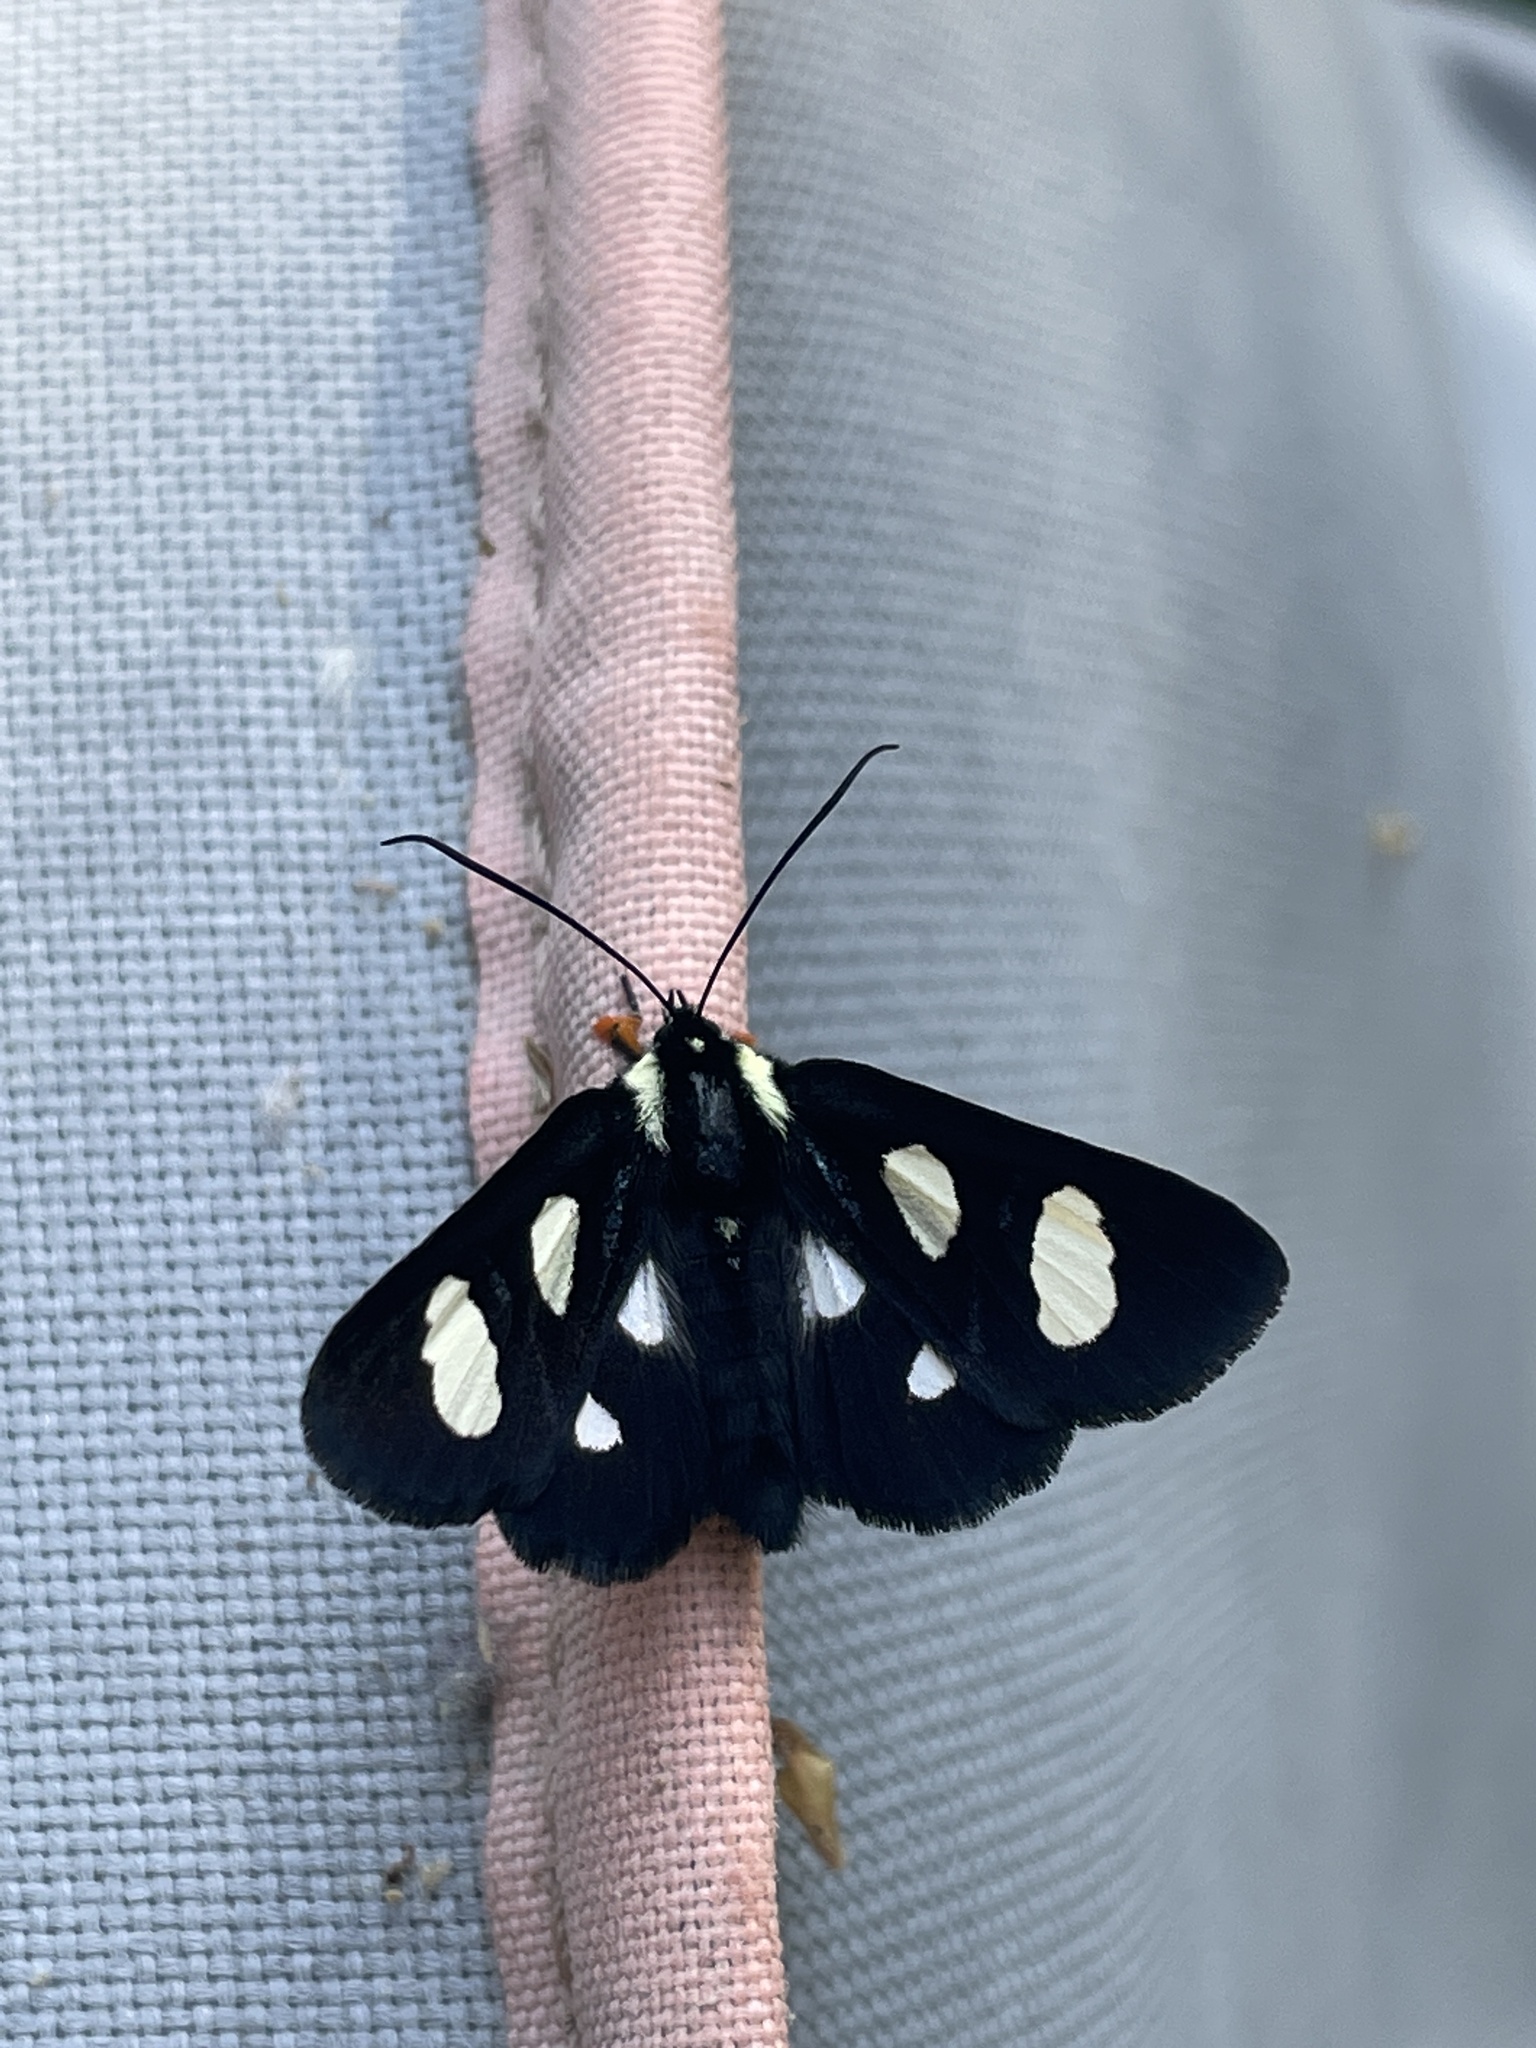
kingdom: Animalia
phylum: Arthropoda
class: Insecta
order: Lepidoptera
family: Noctuidae
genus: Alypia
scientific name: Alypia octomaculata
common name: Eight-spotted forester
